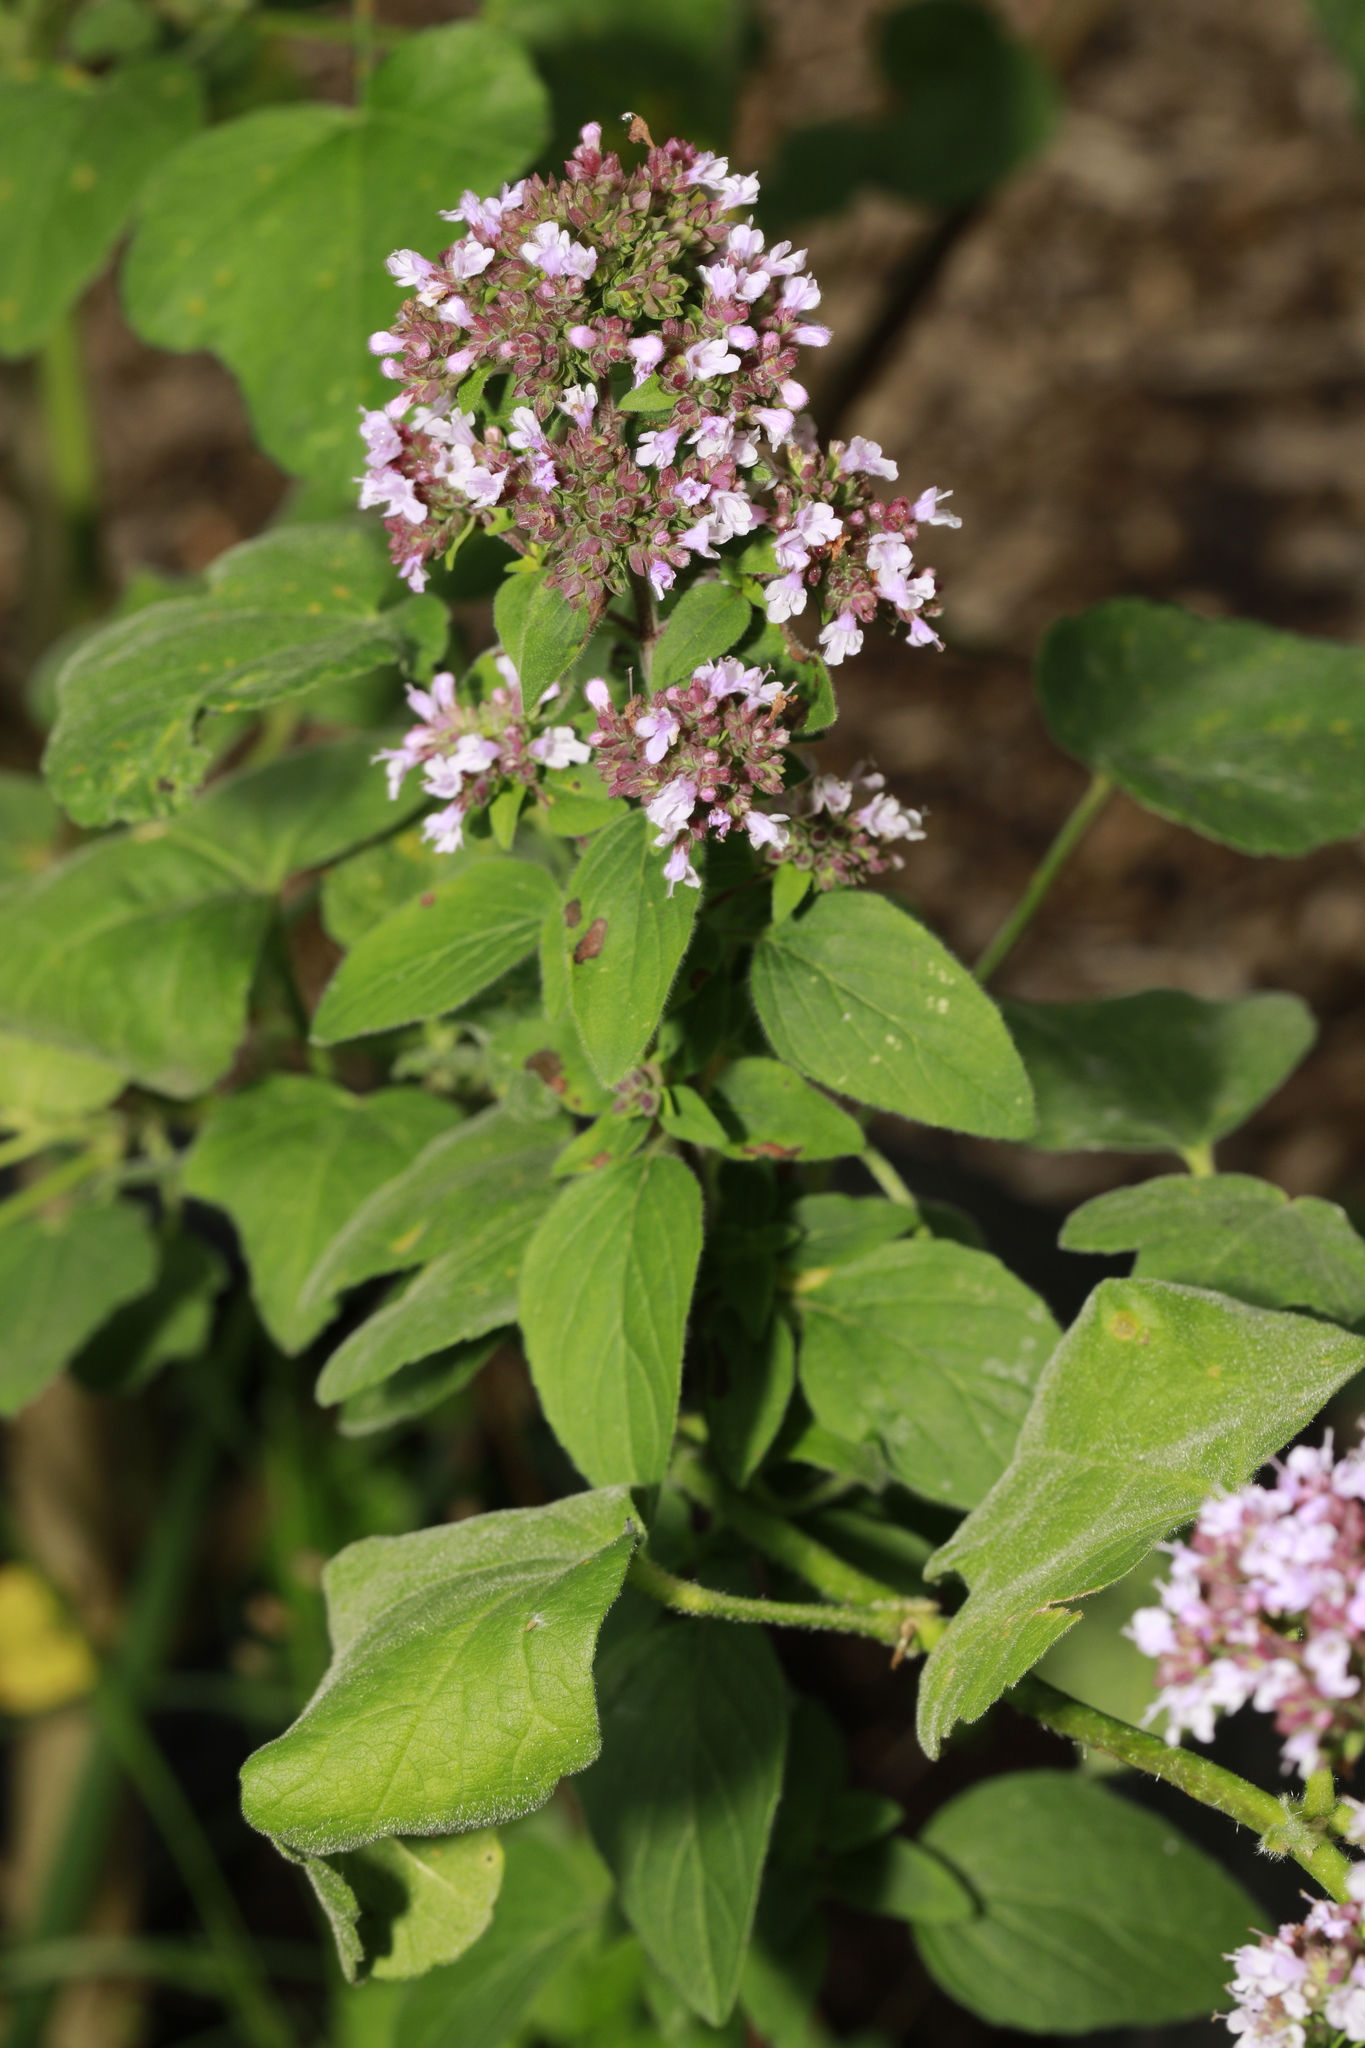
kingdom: Plantae
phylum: Tracheophyta
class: Magnoliopsida
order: Lamiales
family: Lamiaceae
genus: Origanum
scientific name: Origanum vulgare
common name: Wild marjoram
